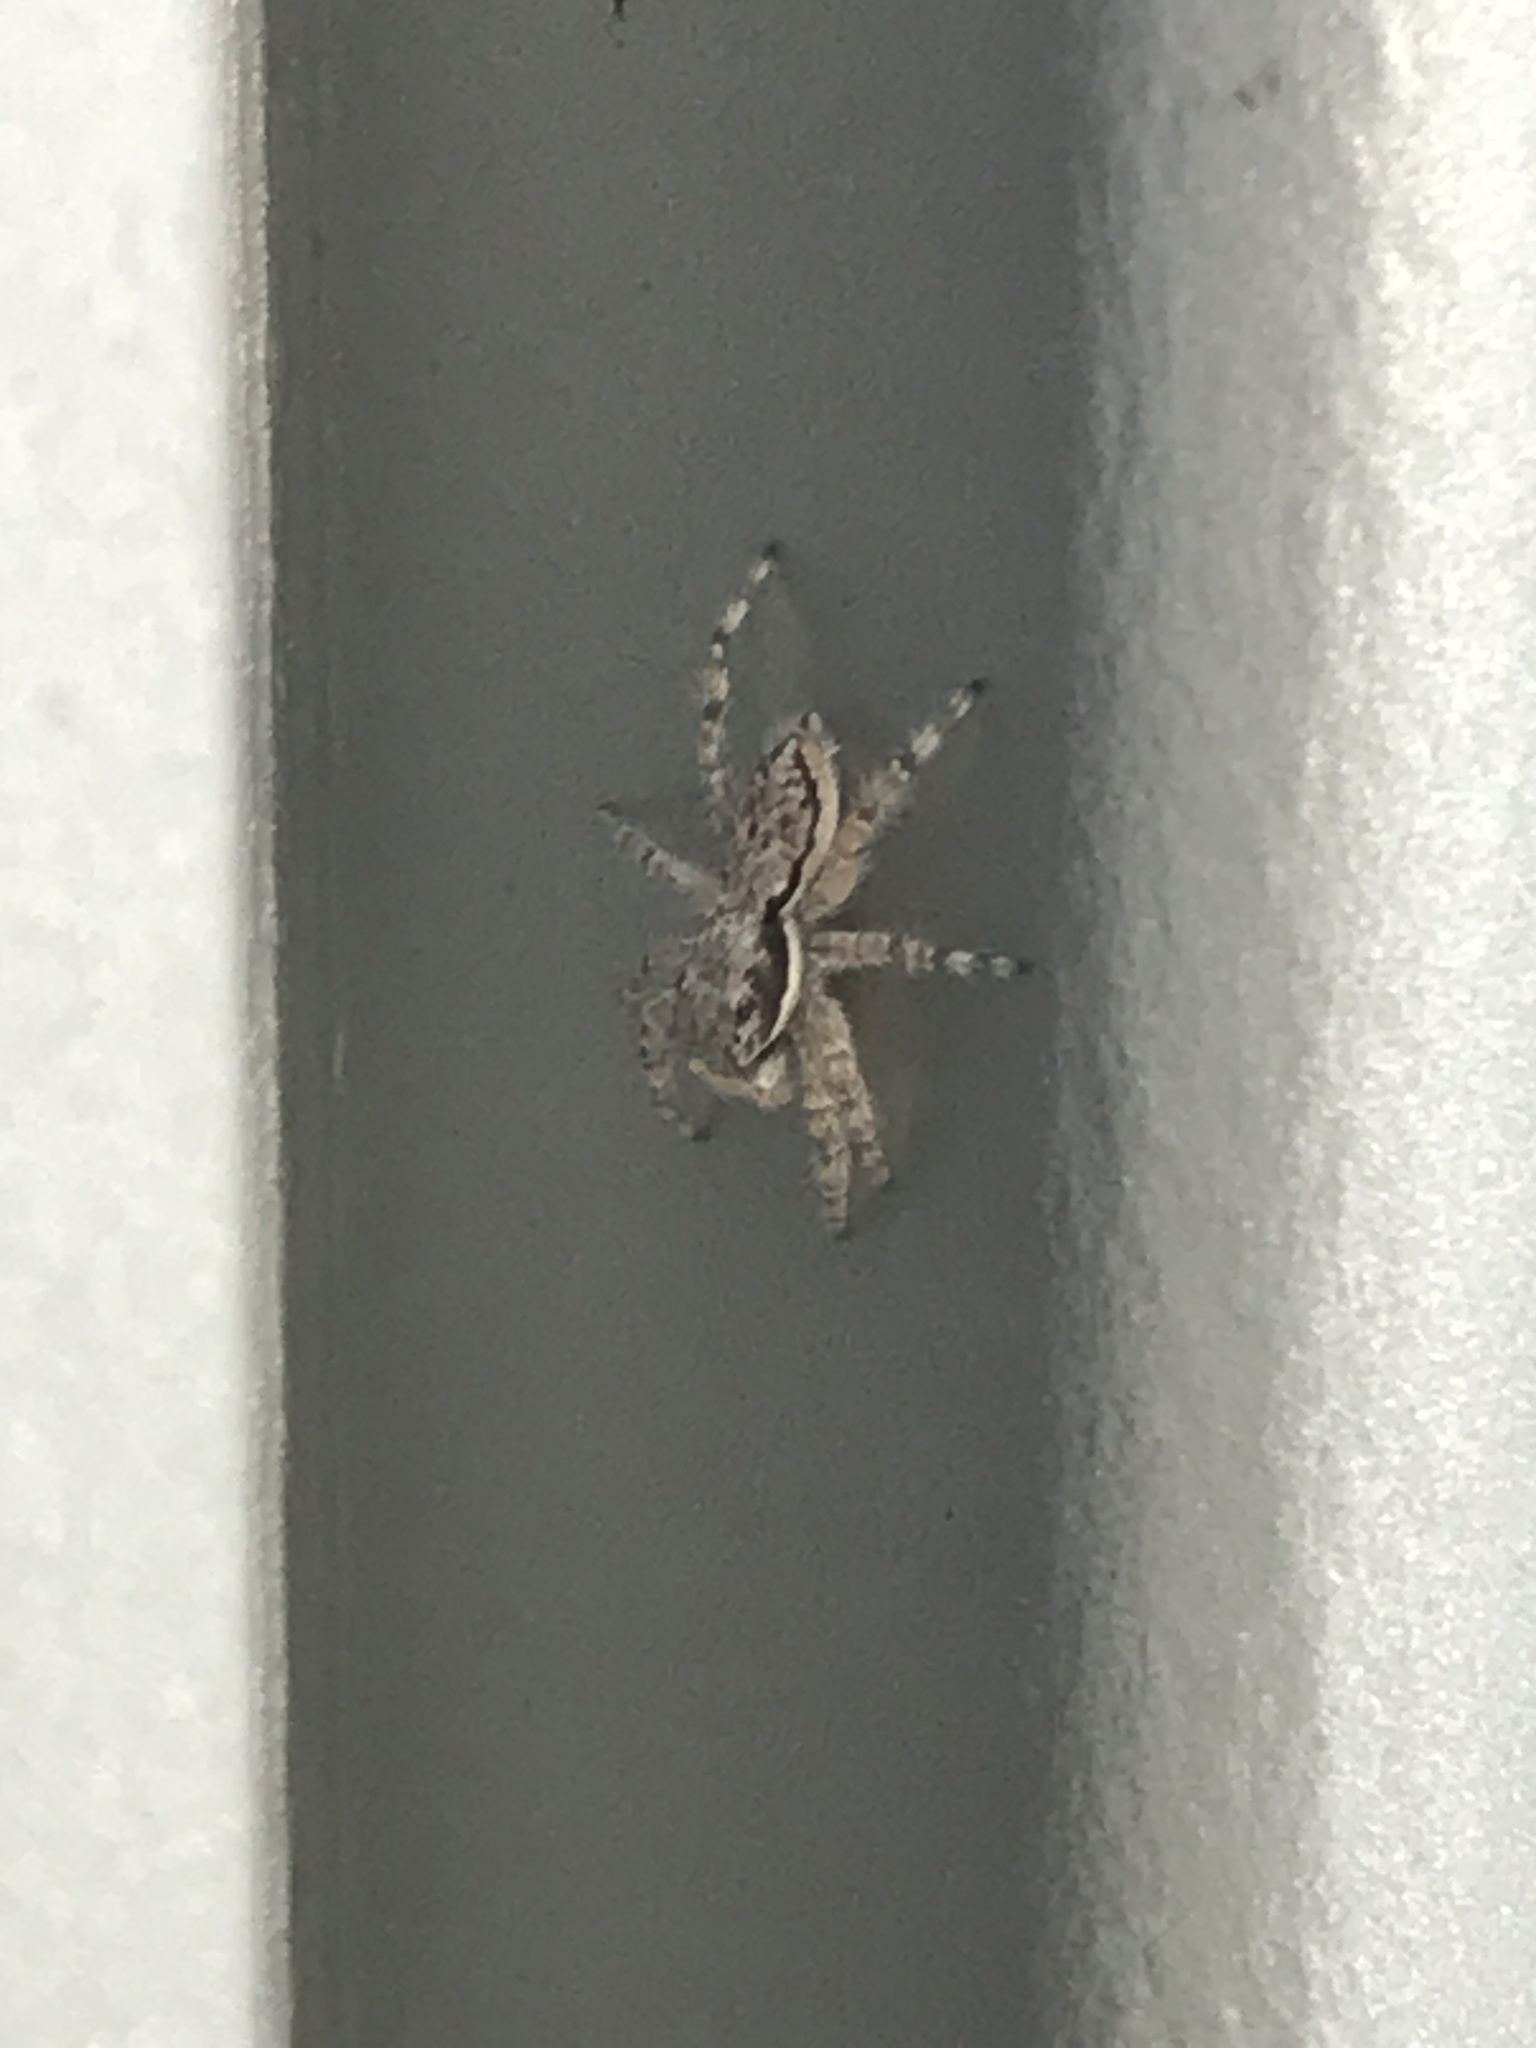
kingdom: Animalia
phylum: Arthropoda
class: Arachnida
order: Araneae
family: Salticidae
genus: Menemerus
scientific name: Menemerus bivittatus
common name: Gray wall jumper
